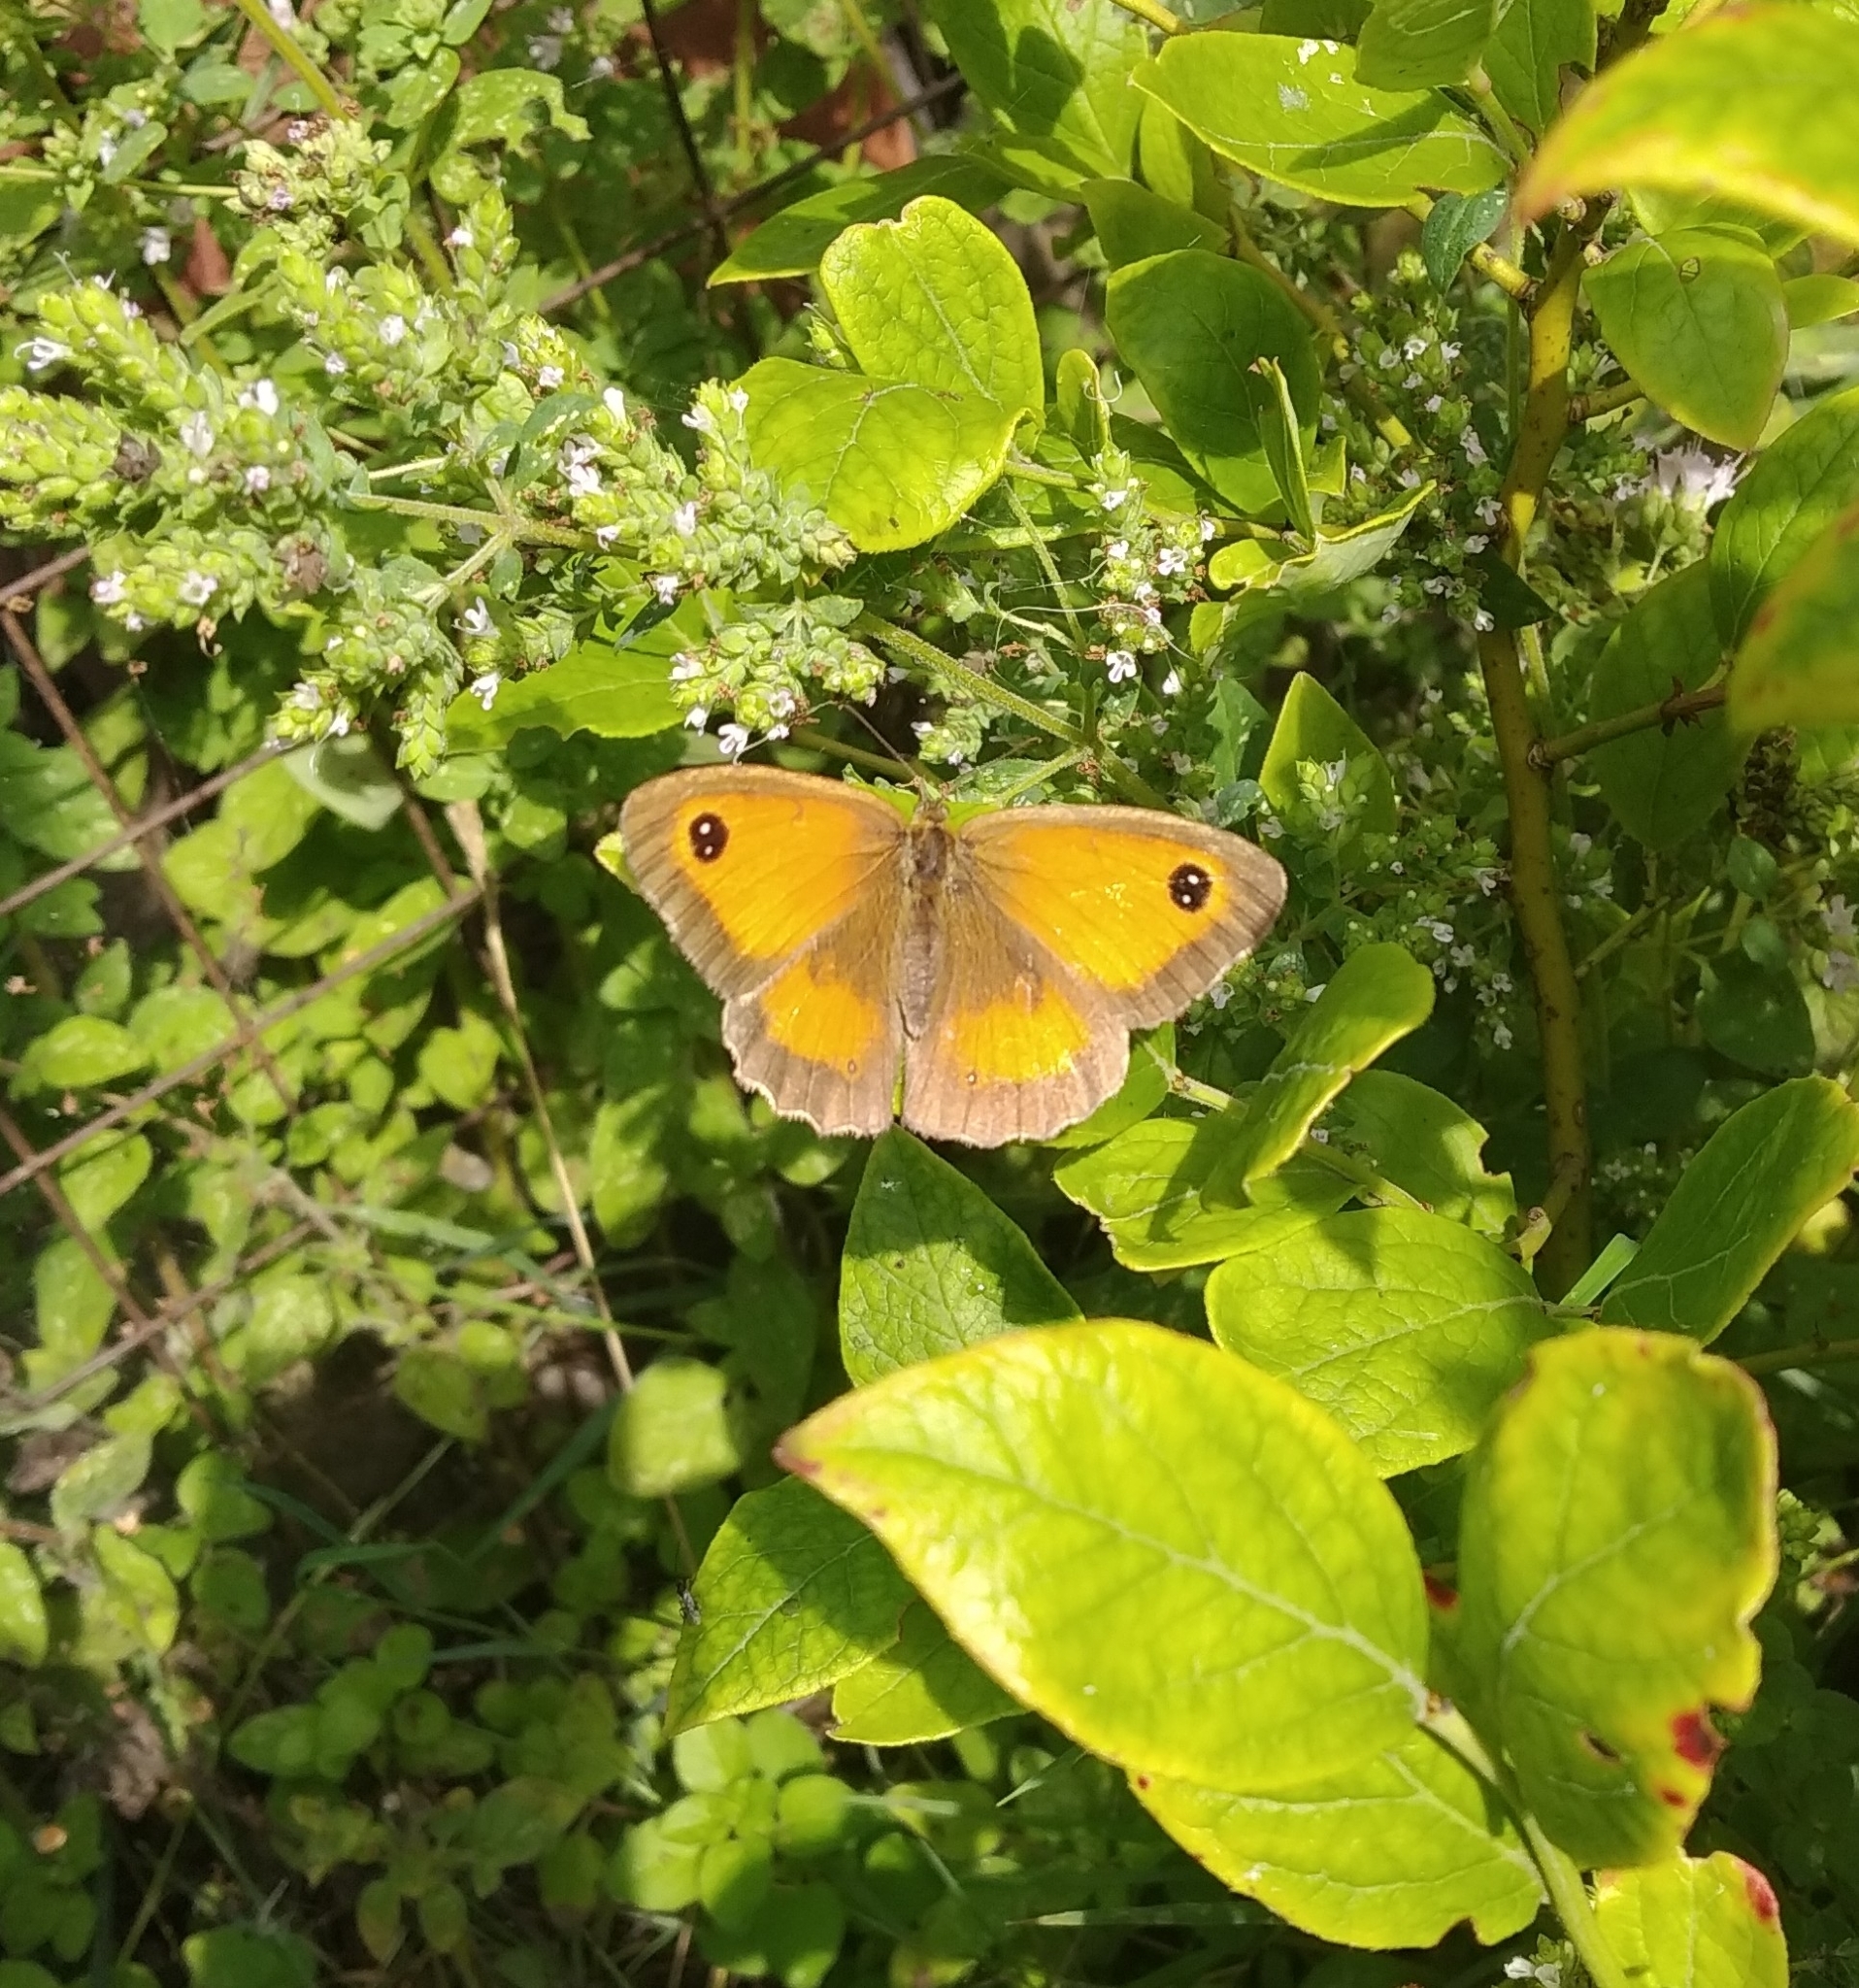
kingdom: Animalia
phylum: Arthropoda
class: Insecta
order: Lepidoptera
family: Nymphalidae
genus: Pyronia
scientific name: Pyronia tithonus
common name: Gatekeeper
